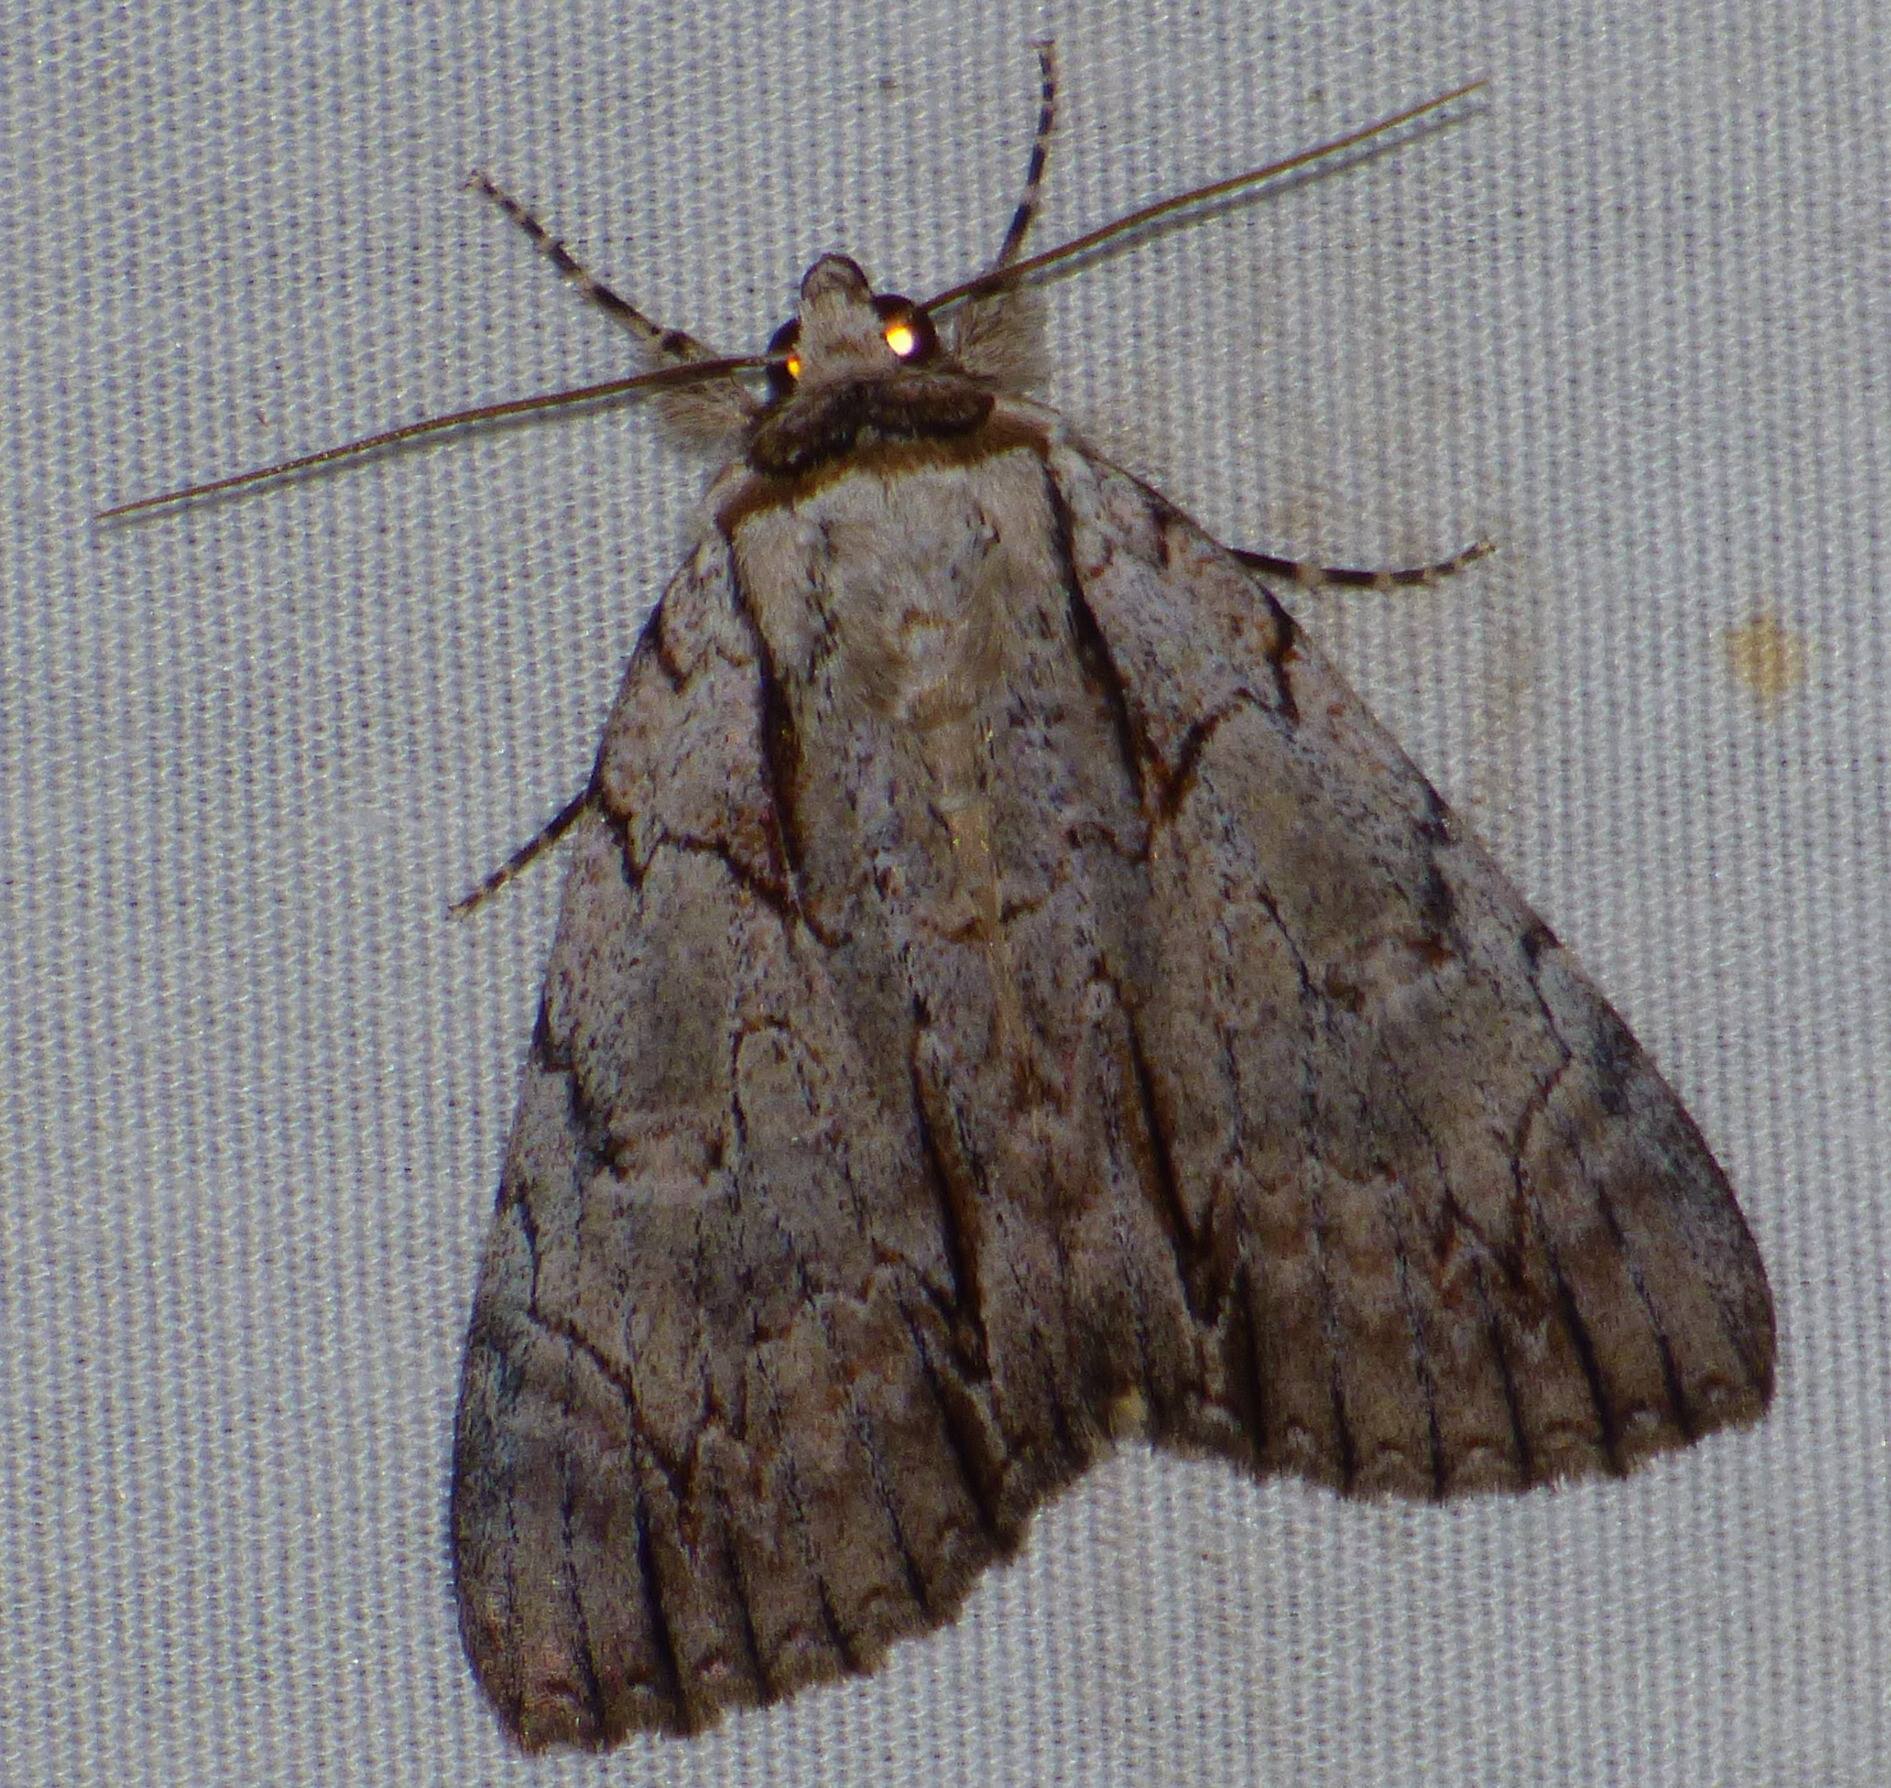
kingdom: Animalia
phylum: Arthropoda
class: Insecta
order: Lepidoptera
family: Erebidae
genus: Catocala
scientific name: Catocala clintonii
